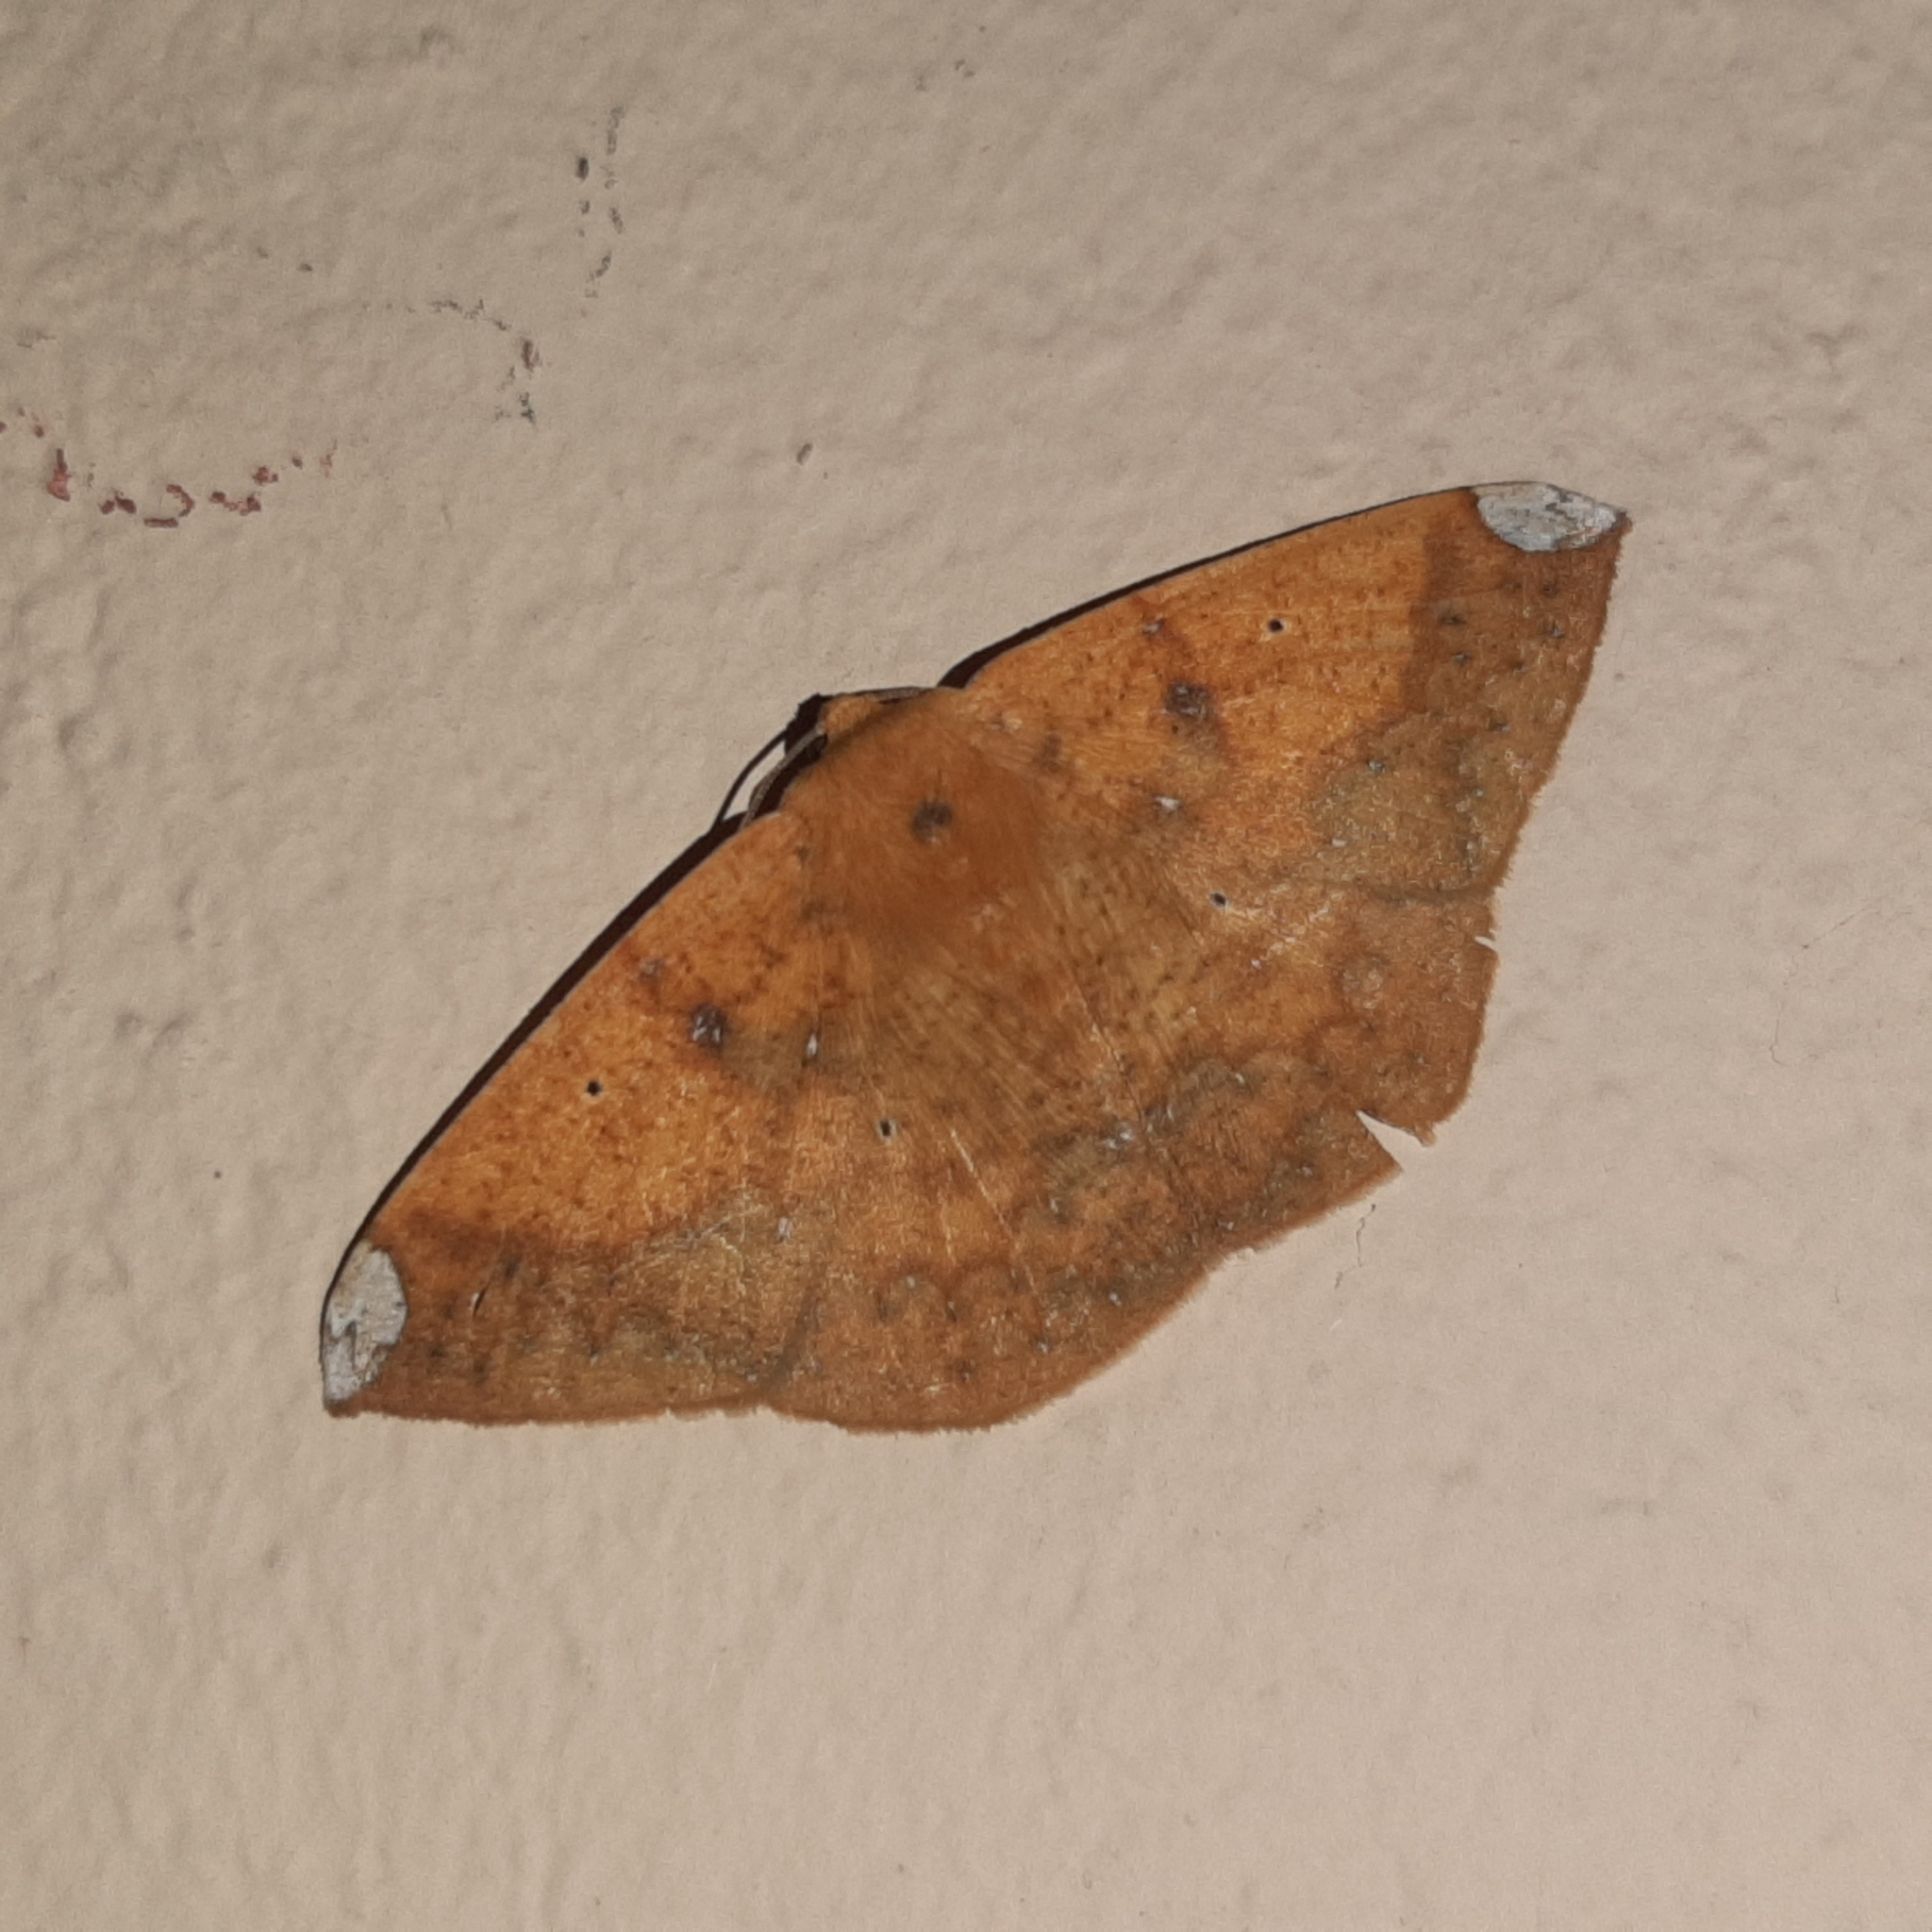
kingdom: Animalia
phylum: Arthropoda
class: Insecta
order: Lepidoptera
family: Geometridae
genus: Acrosemia
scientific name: Acrosemia vulpecularia
